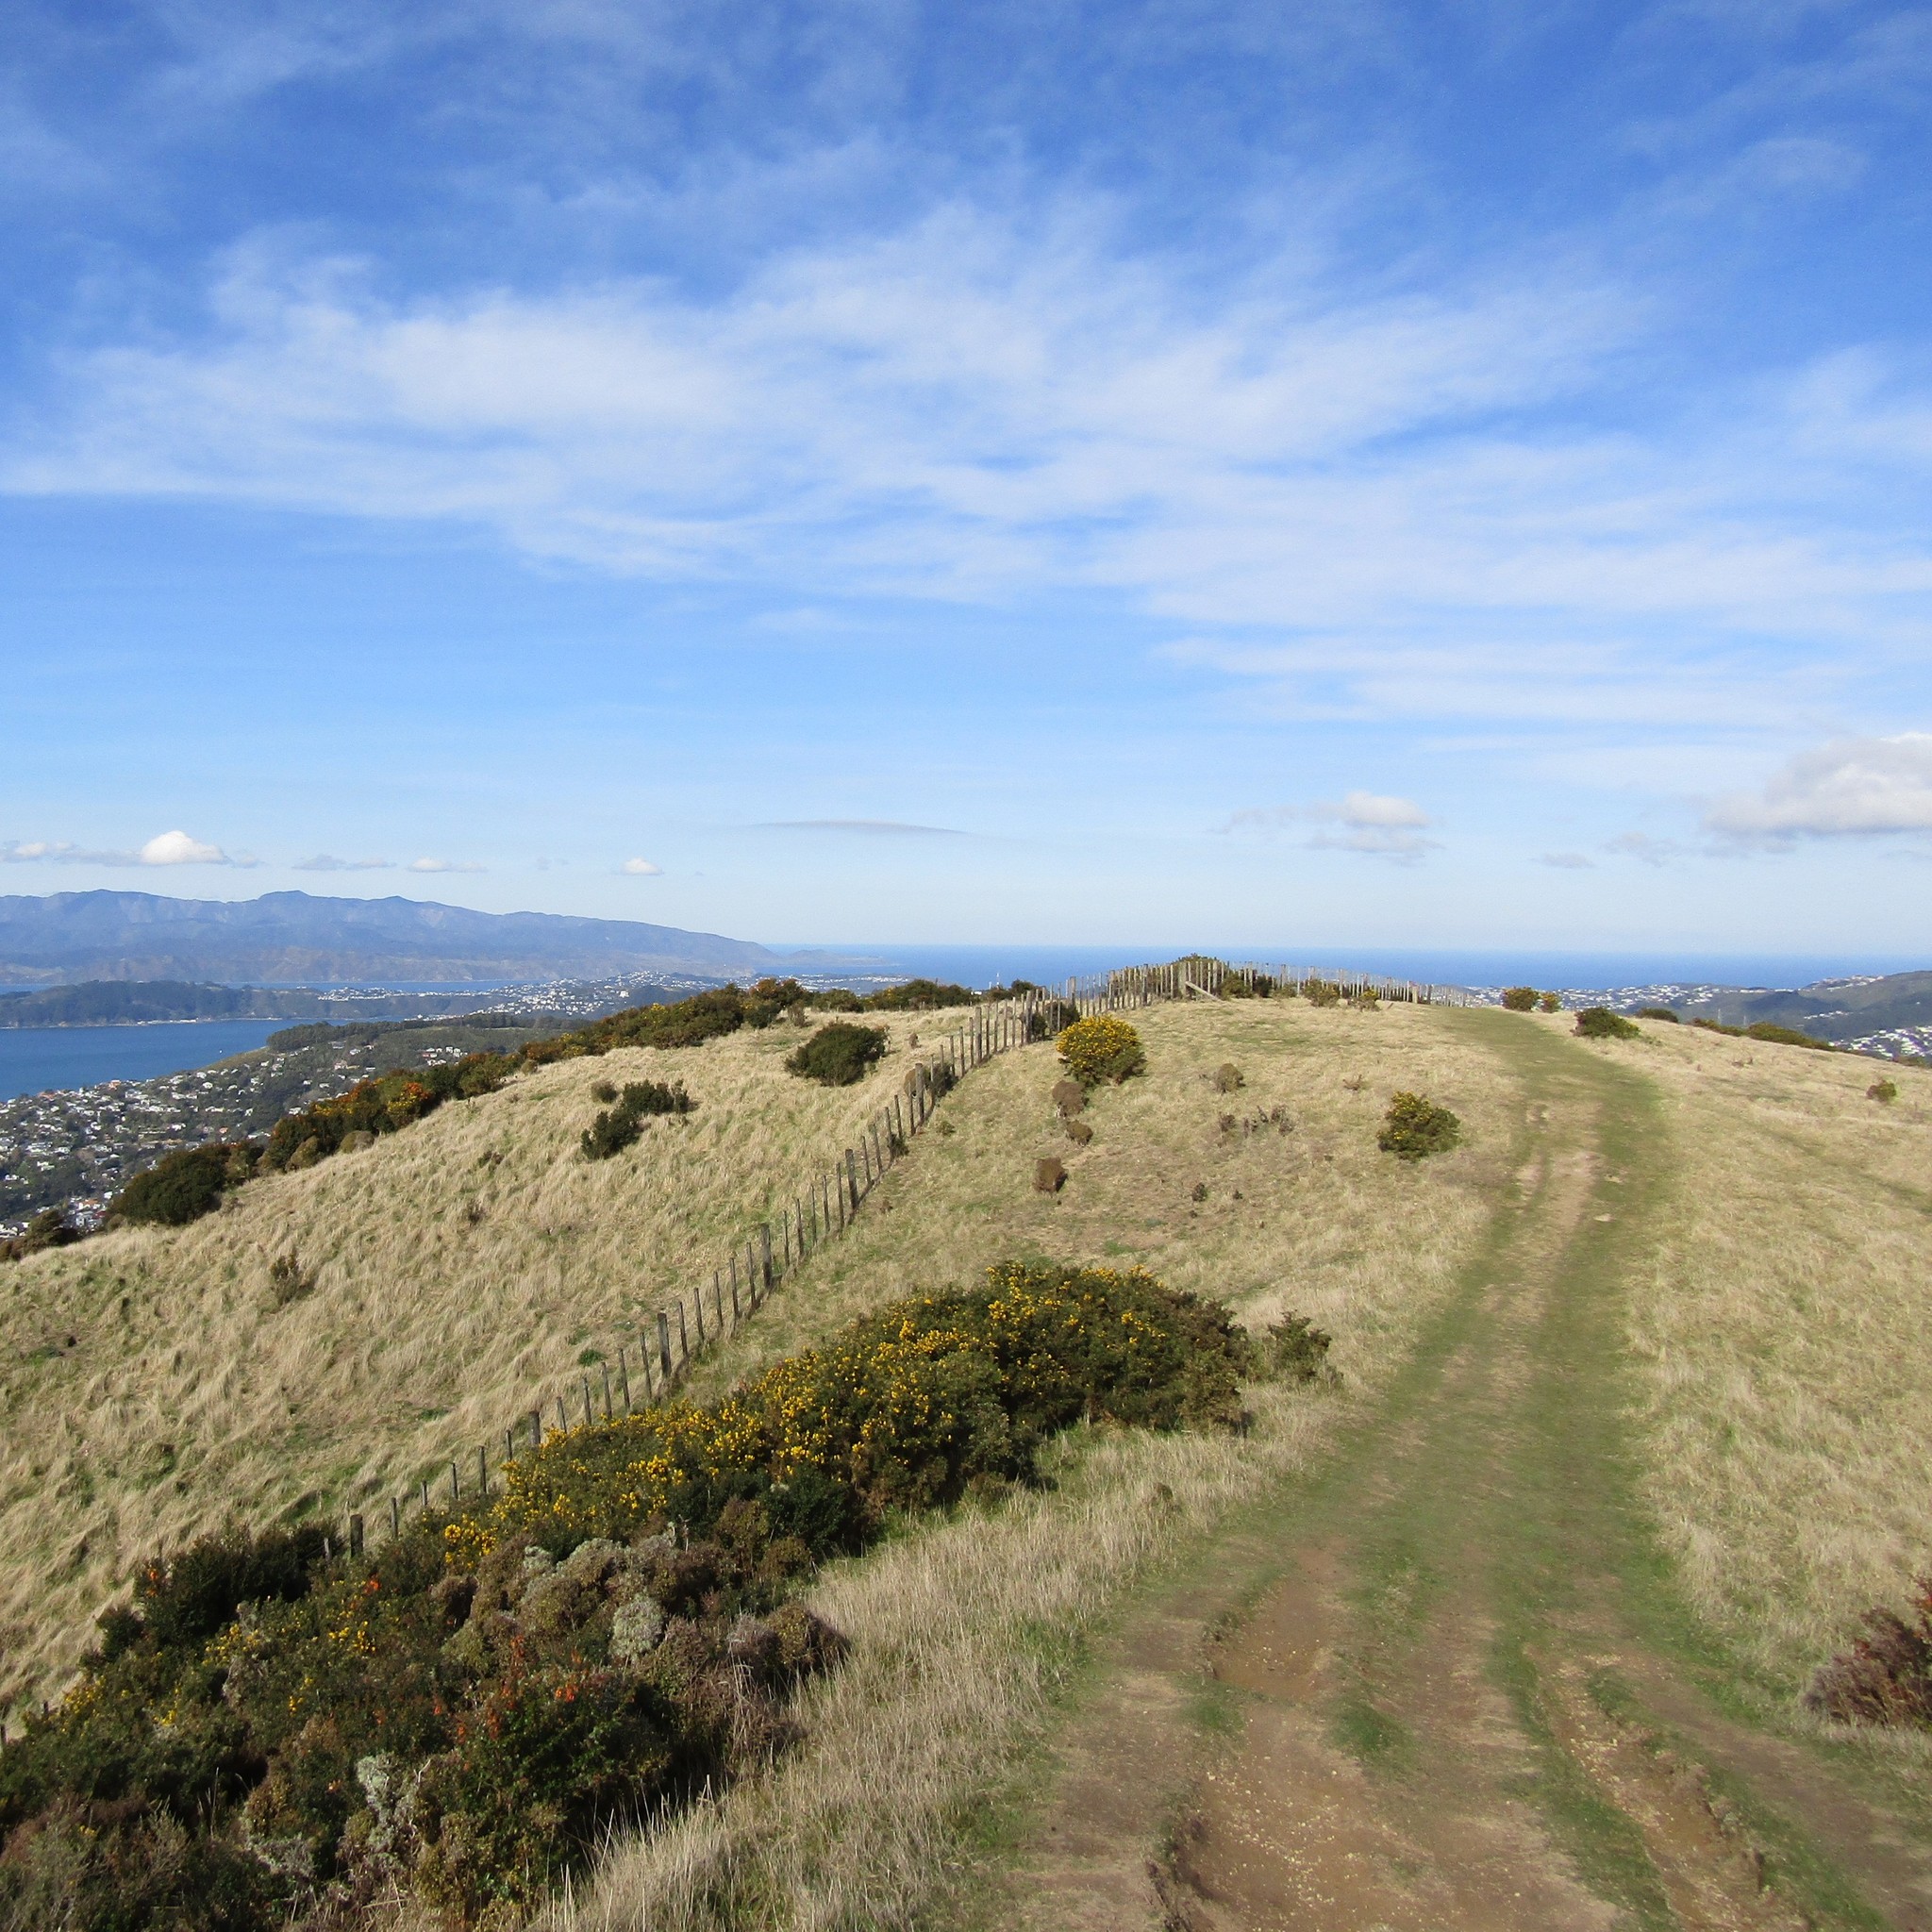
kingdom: Plantae
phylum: Tracheophyta
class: Magnoliopsida
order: Fabales
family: Fabaceae
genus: Ulex
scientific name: Ulex europaeus
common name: Common gorse
